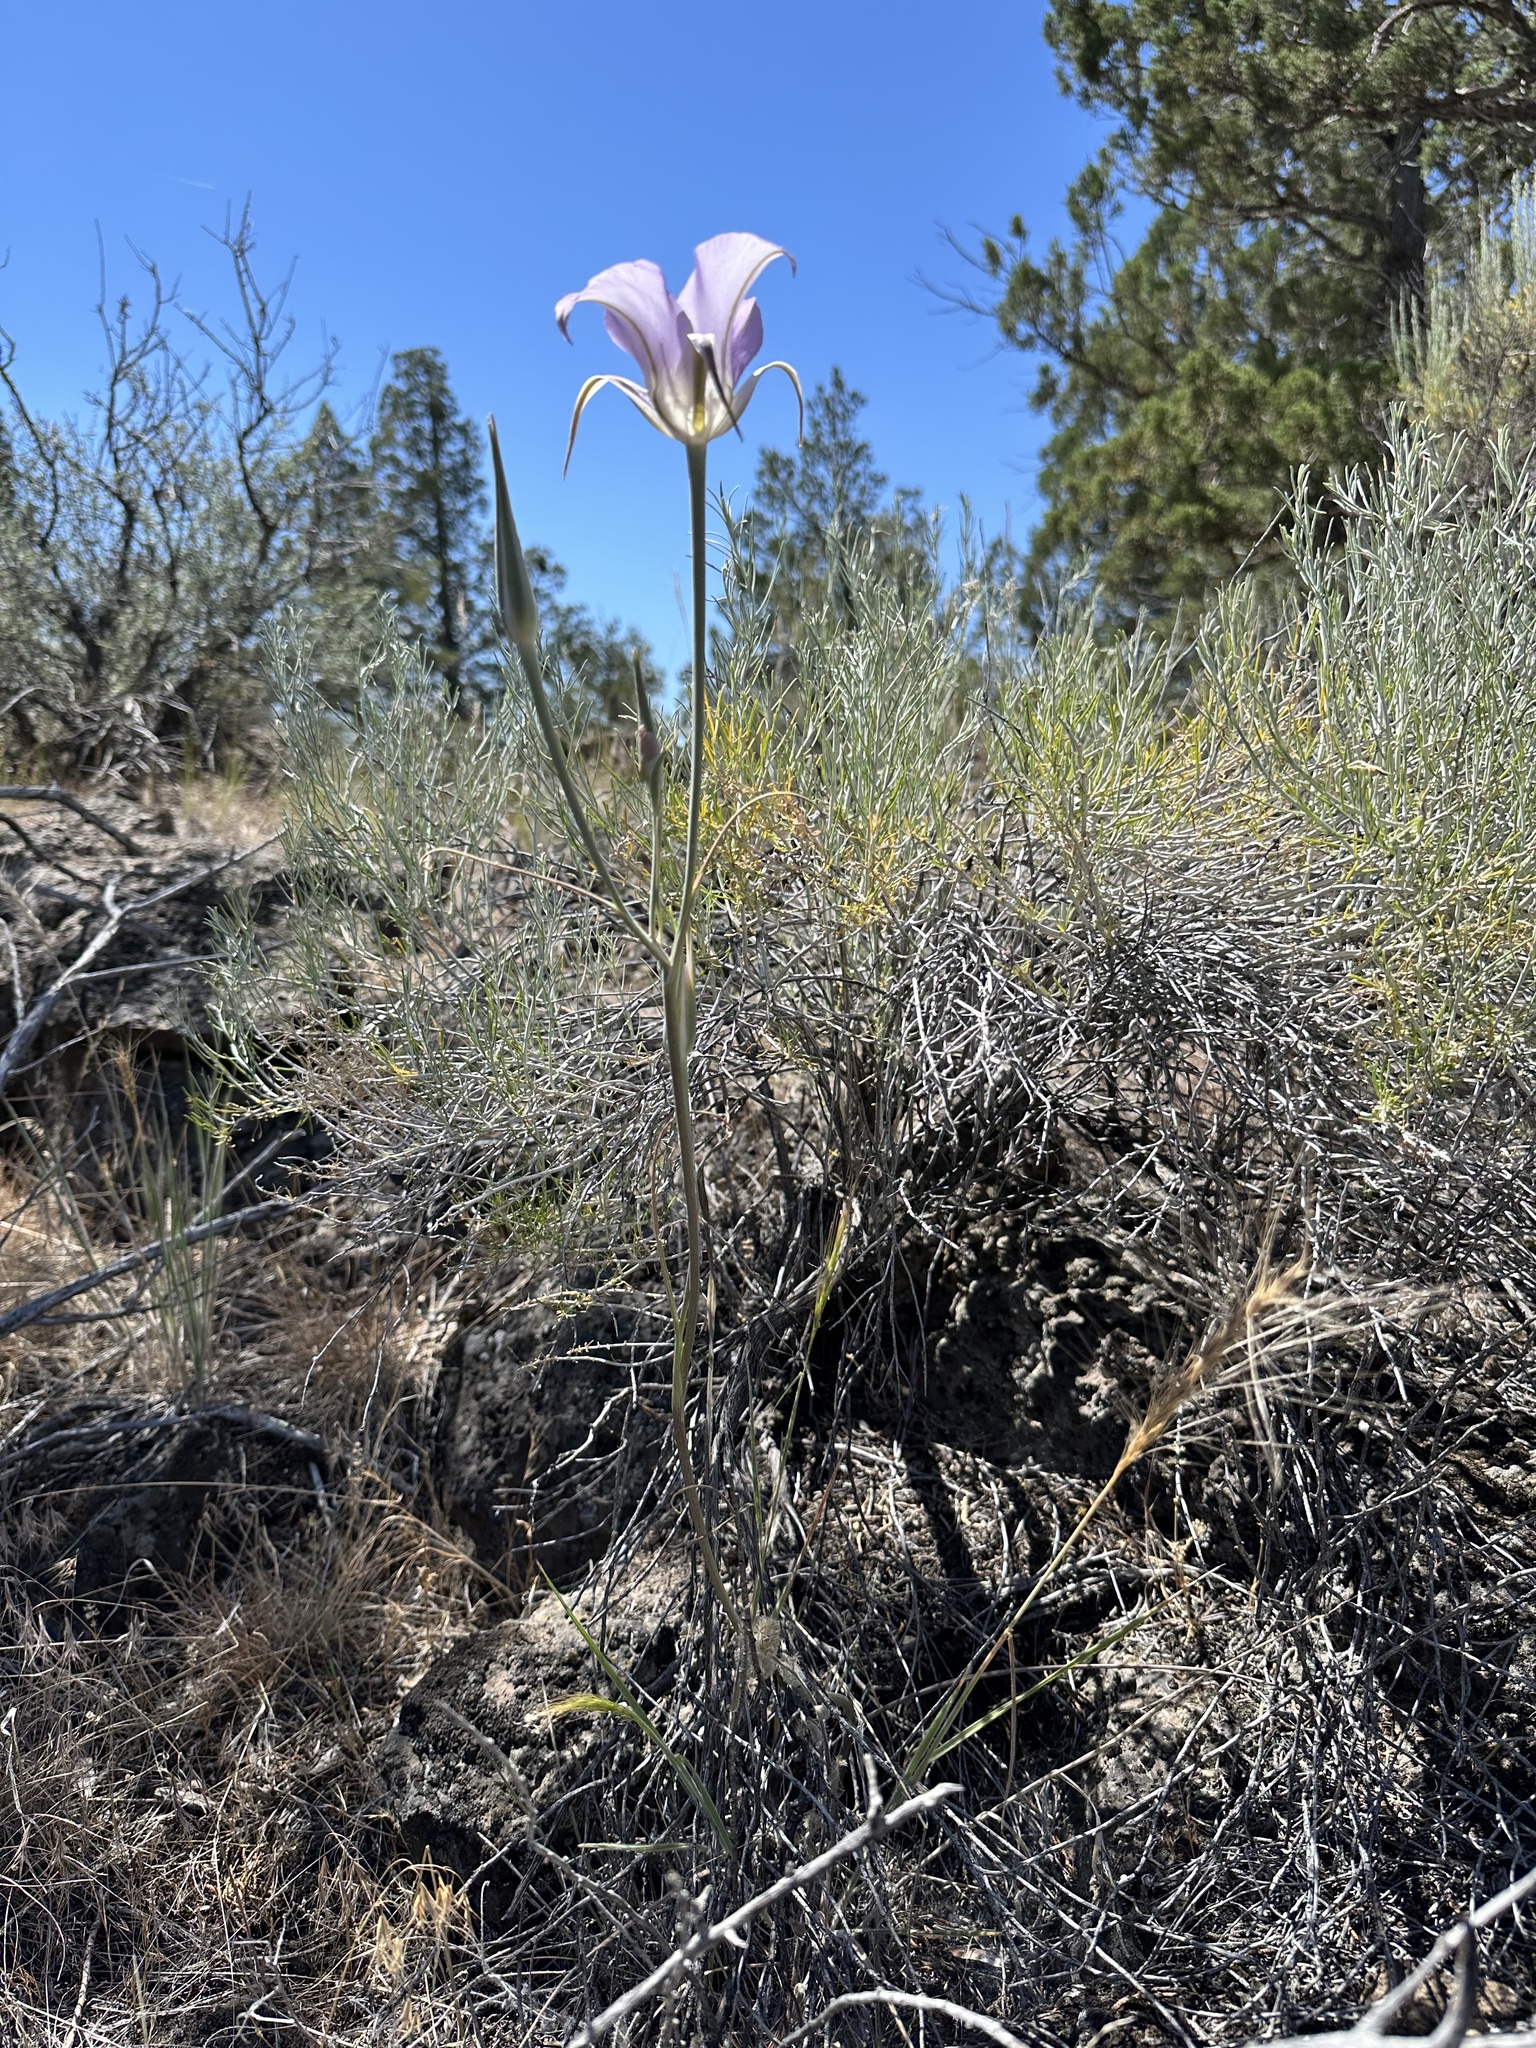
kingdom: Plantae
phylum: Tracheophyta
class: Liliopsida
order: Liliales
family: Liliaceae
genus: Calochortus
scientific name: Calochortus macrocarpus
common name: Green-band mariposa lily
